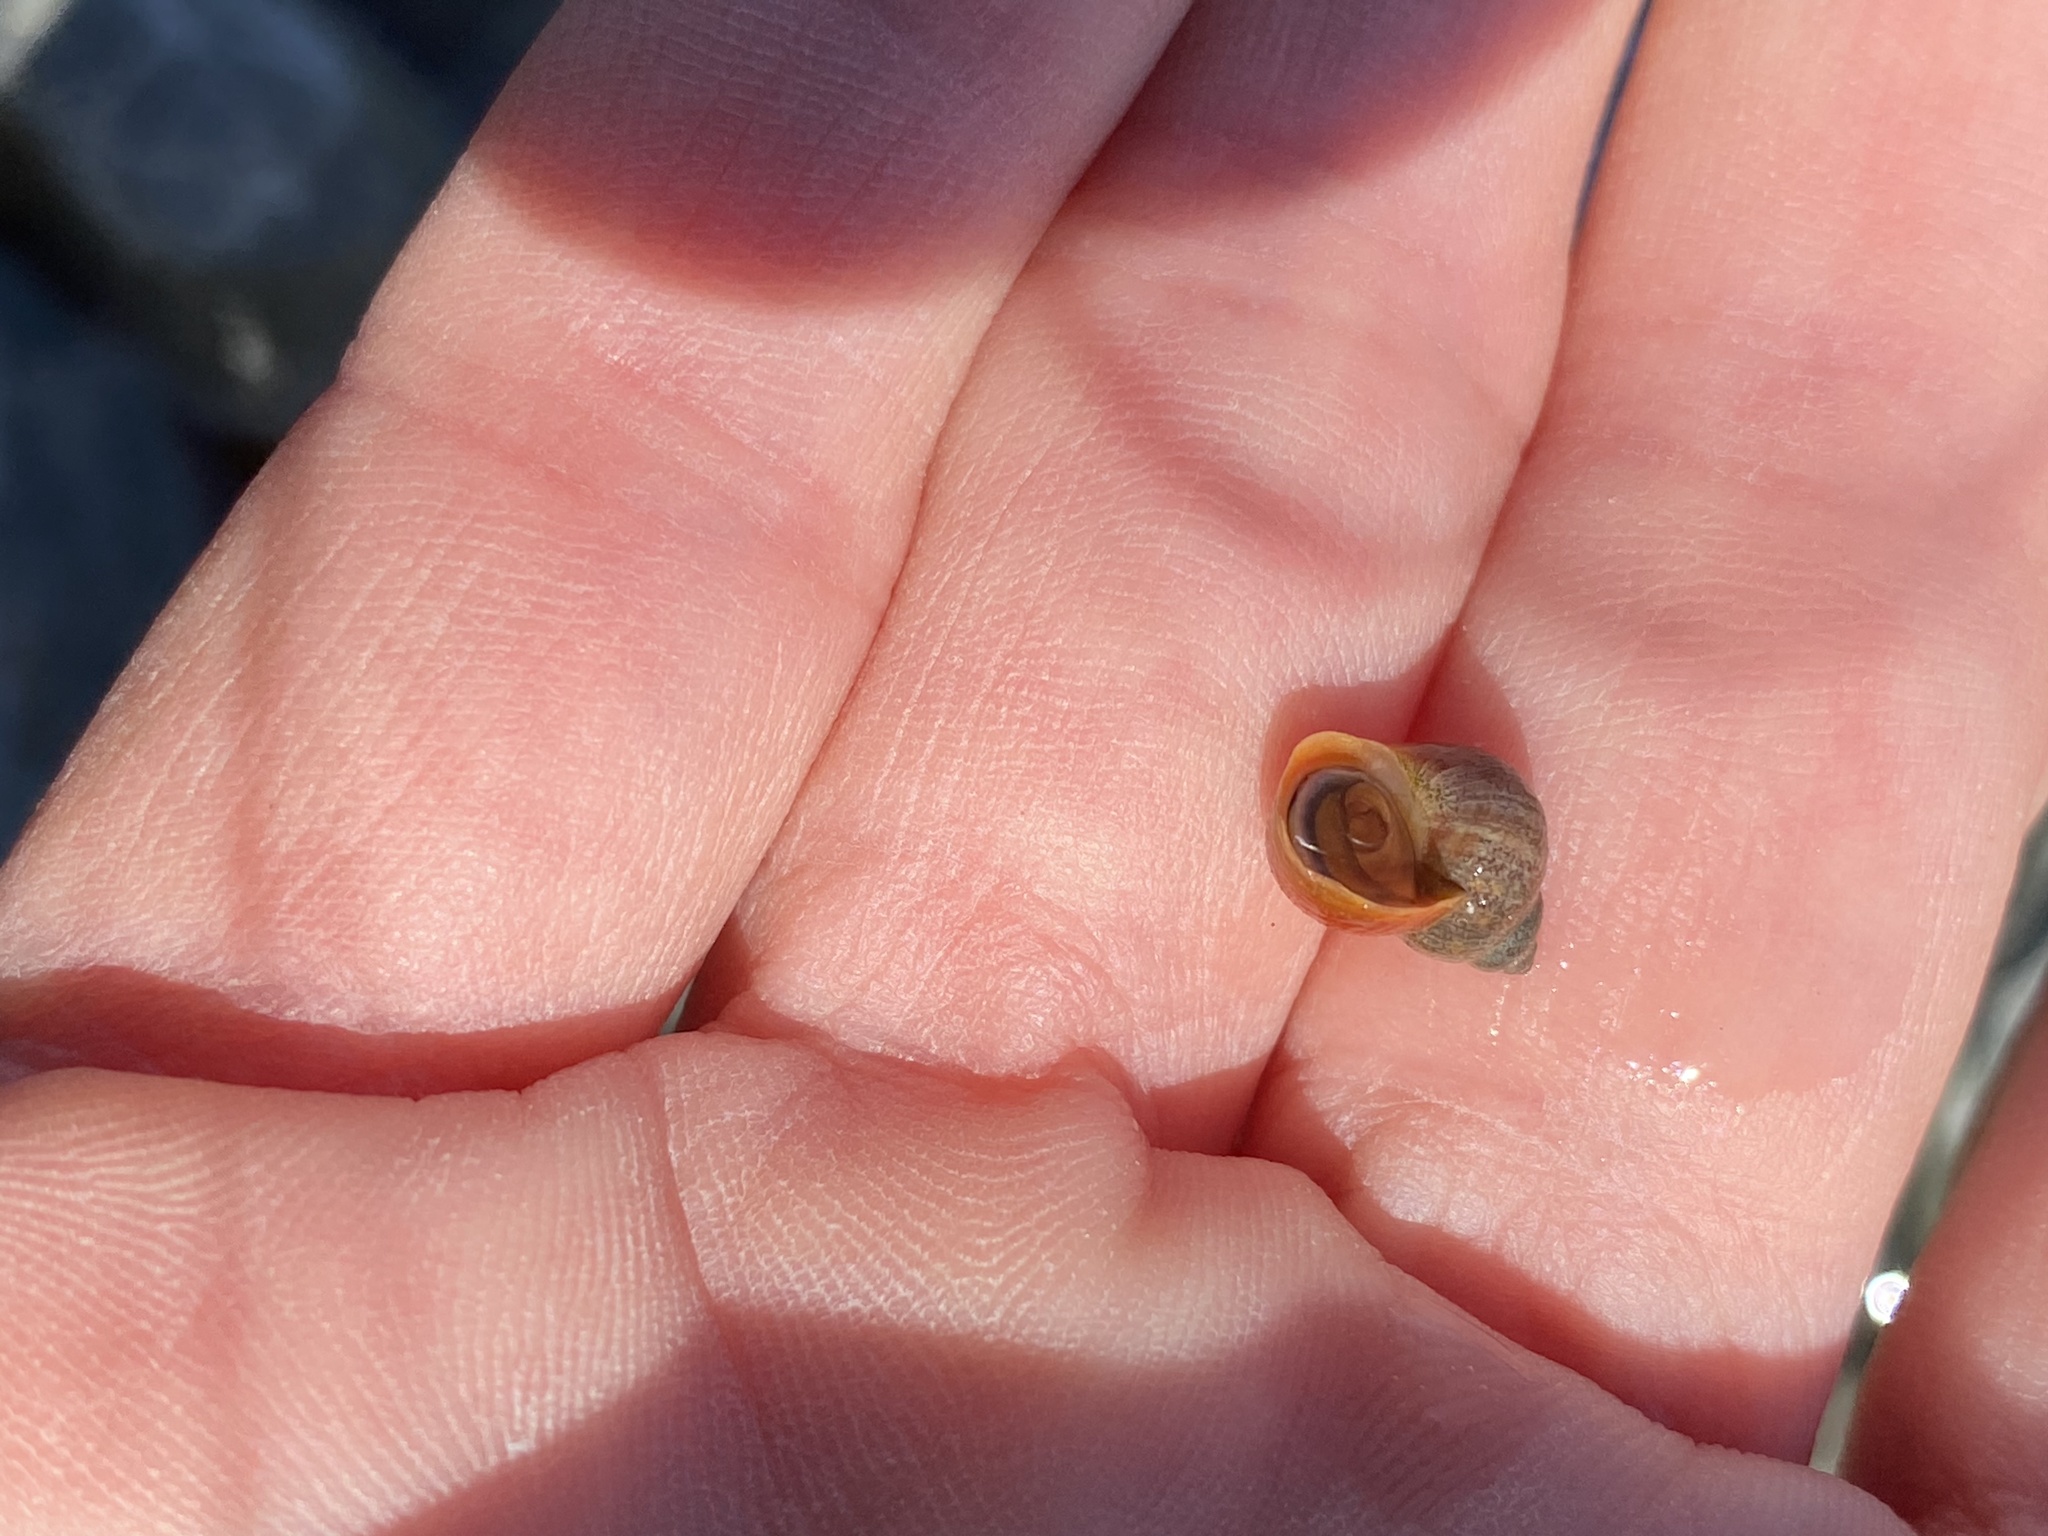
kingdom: Animalia
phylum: Mollusca
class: Gastropoda
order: Littorinimorpha
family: Littorinidae
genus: Littorina
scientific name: Littorina saxatilis
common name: Black-lined periwinkle
